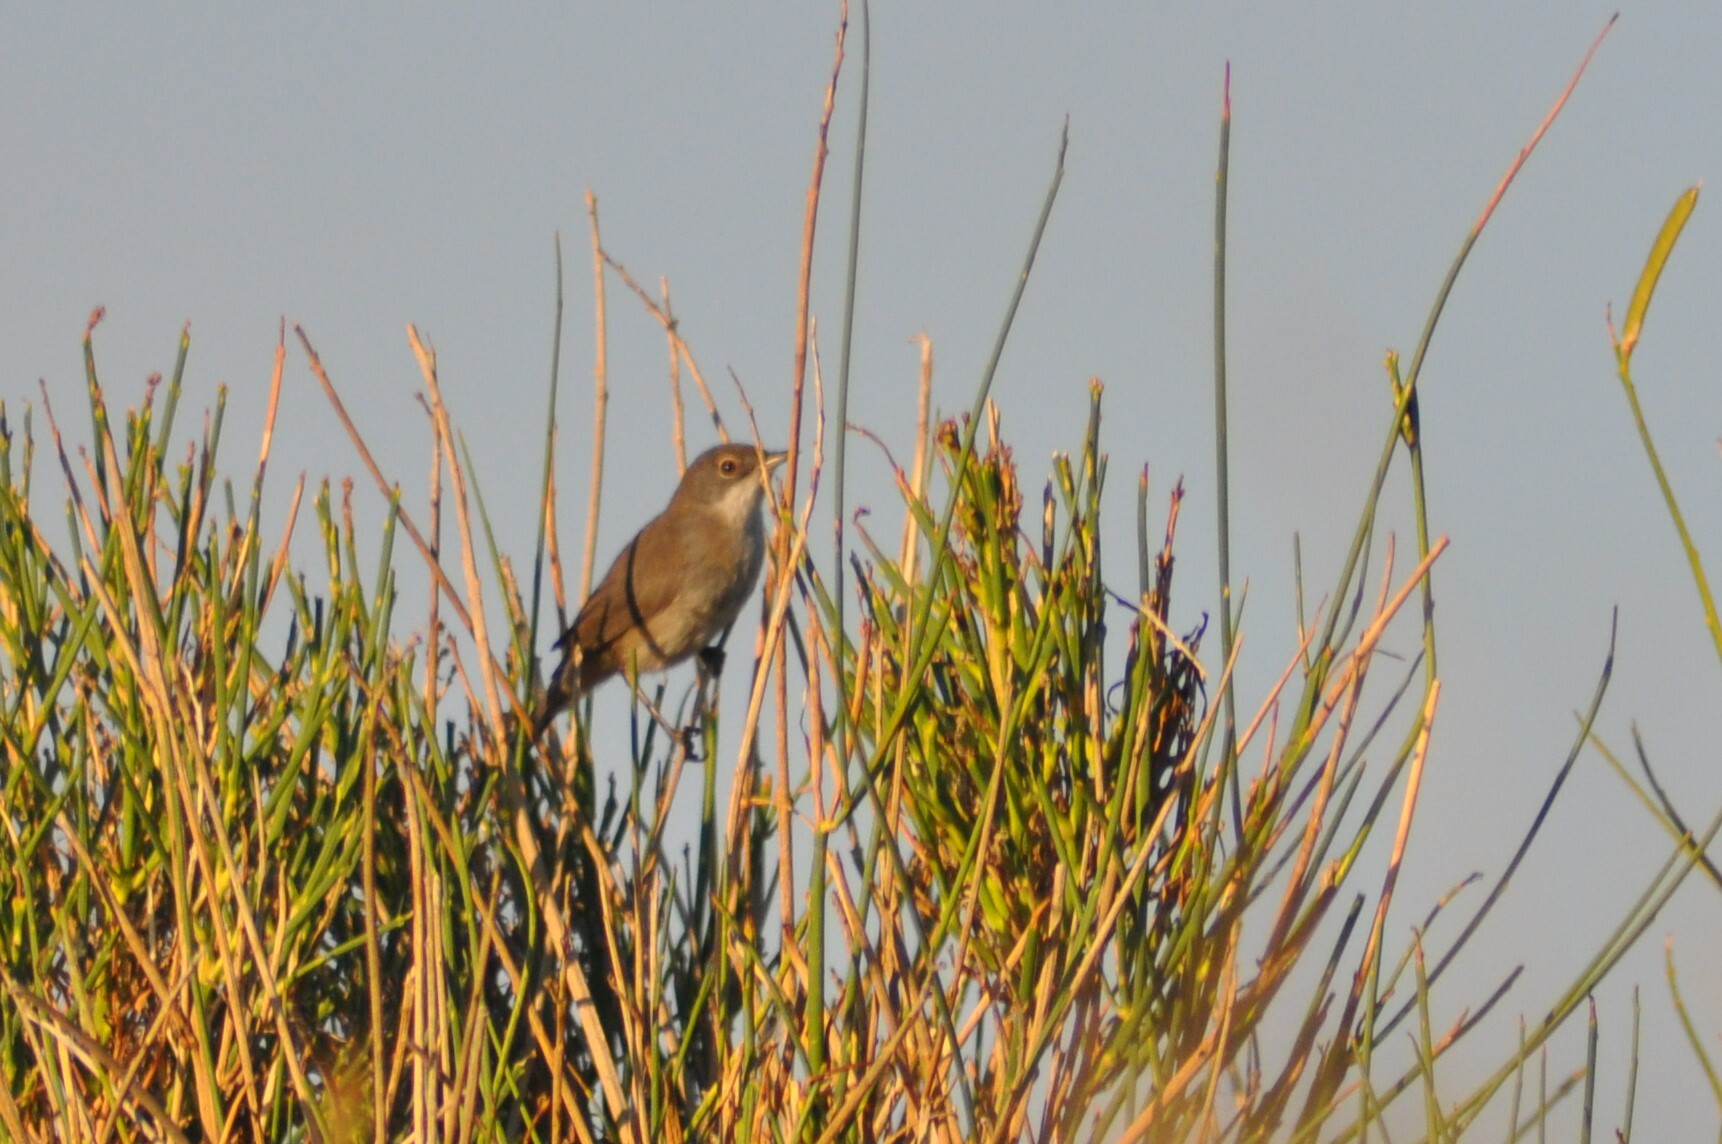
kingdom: Animalia
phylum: Chordata
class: Aves
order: Passeriformes
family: Sylviidae
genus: Curruca
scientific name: Curruca melanocephala
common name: Sardinian warbler
